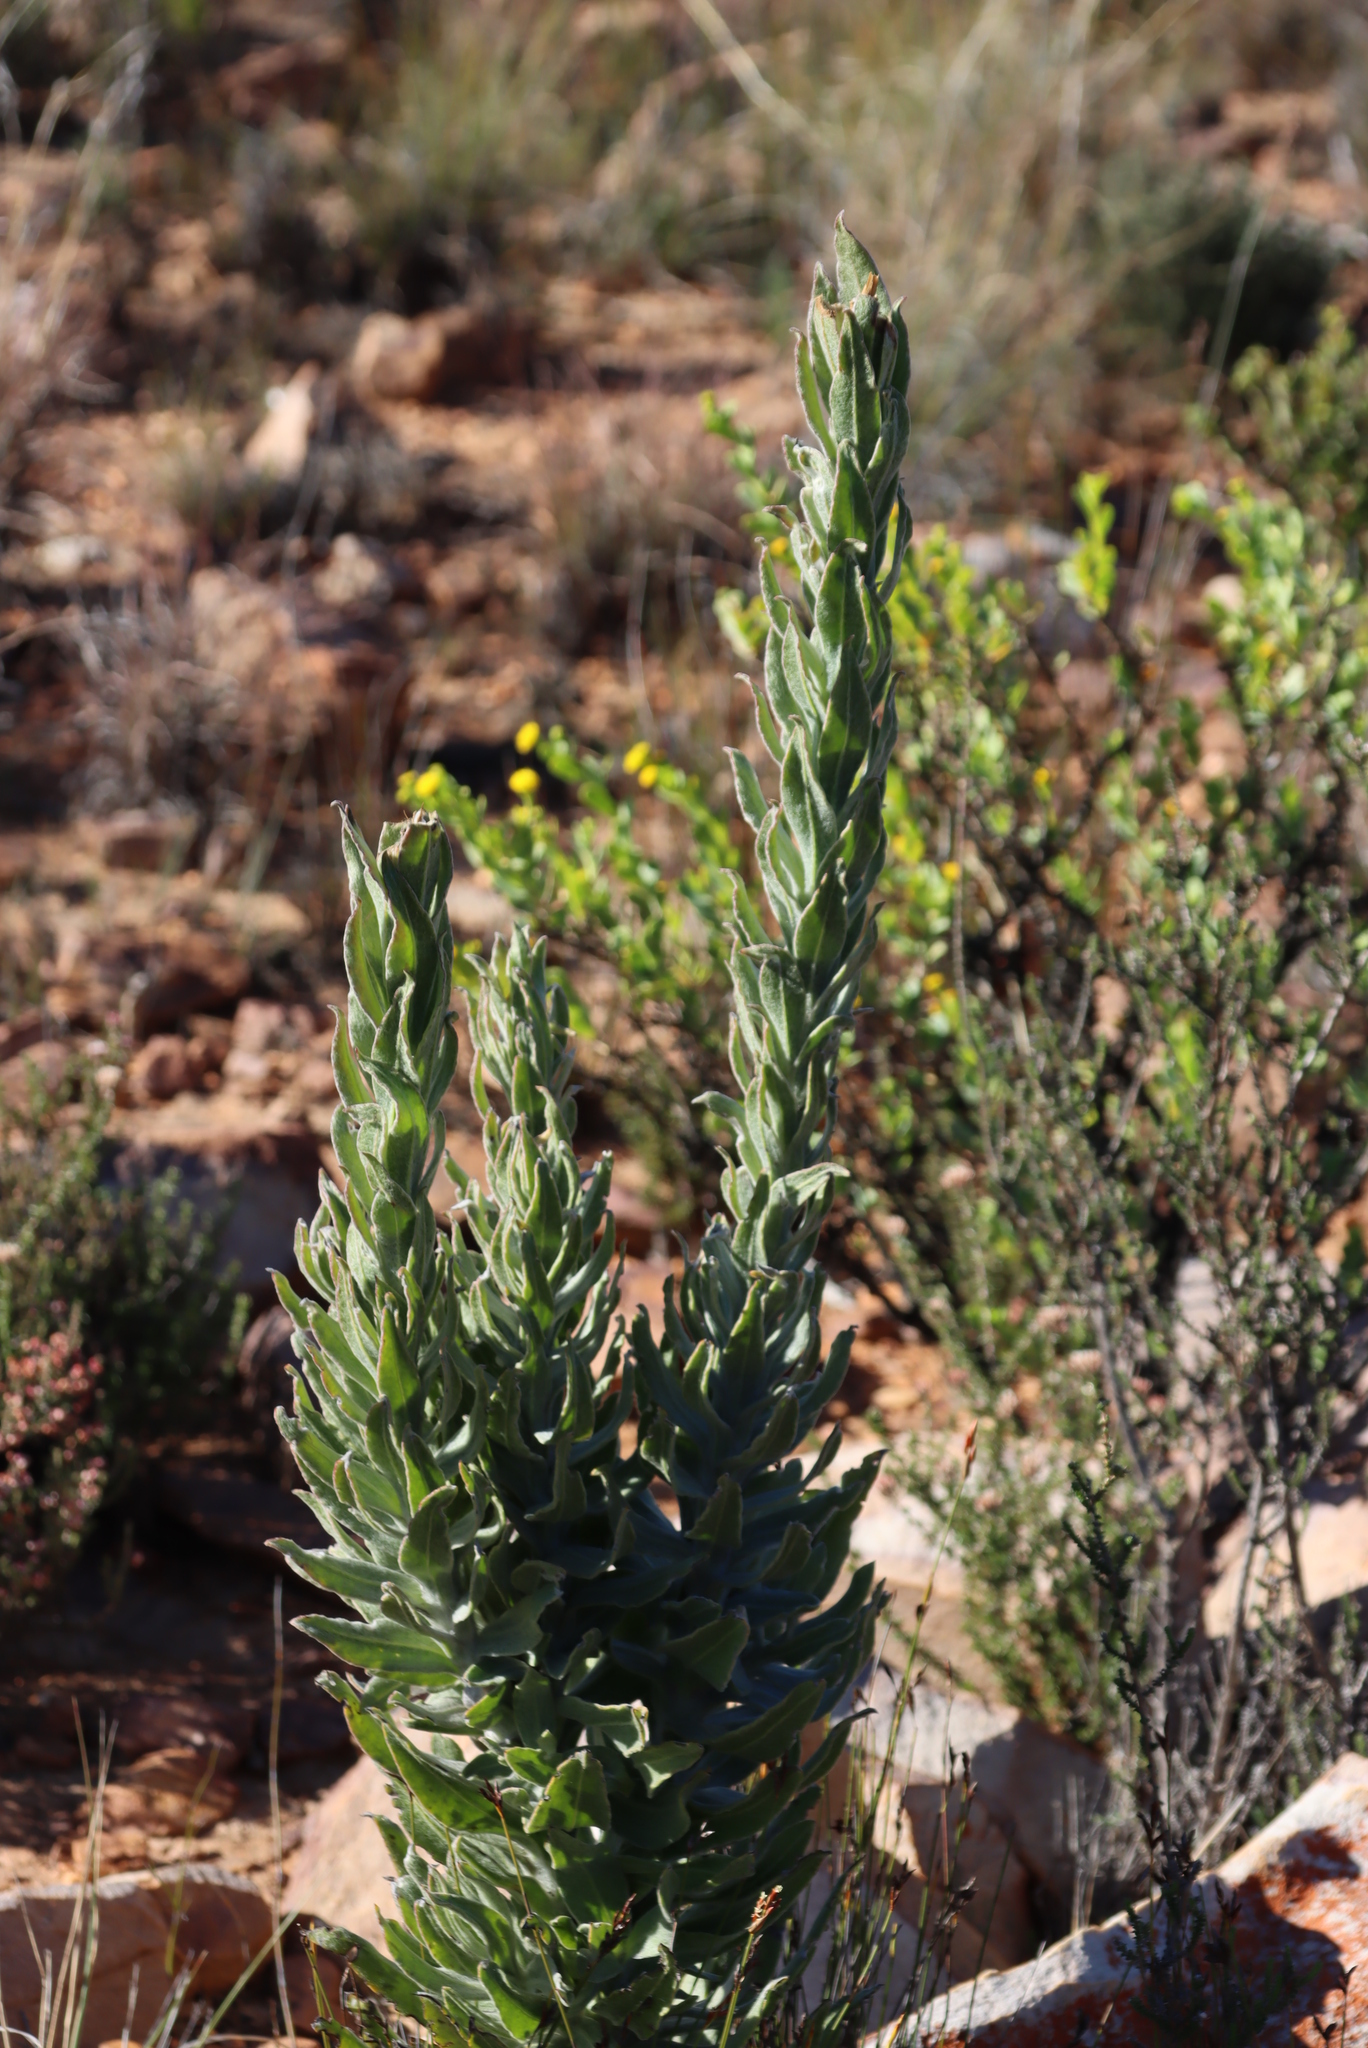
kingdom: Plantae
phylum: Tracheophyta
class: Magnoliopsida
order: Asterales
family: Asteraceae
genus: Syncarpha
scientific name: Syncarpha milleflora
